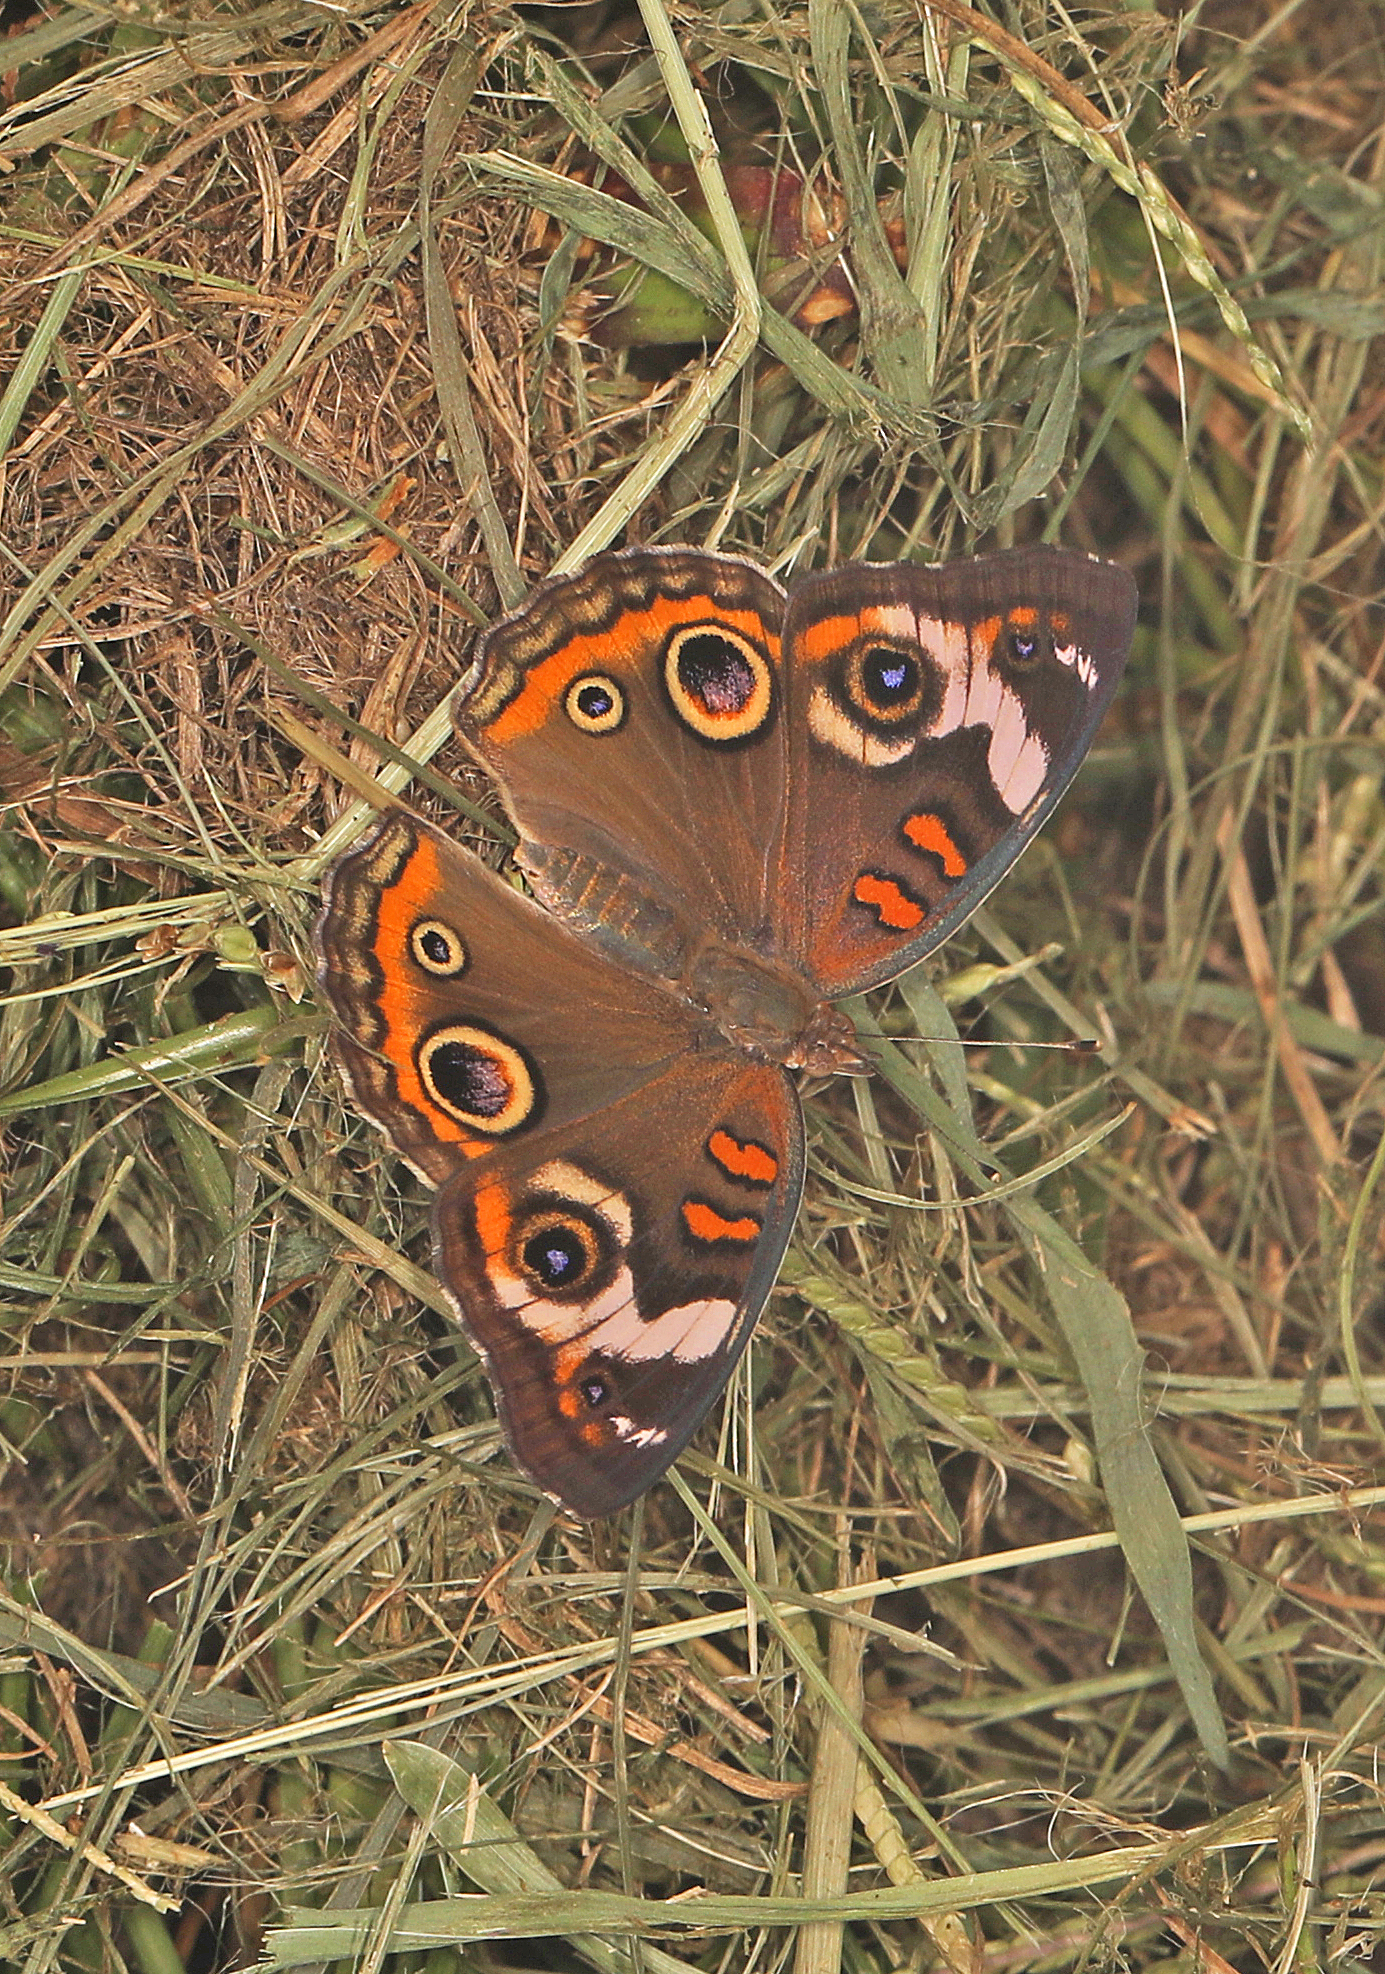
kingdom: Animalia
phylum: Arthropoda
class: Insecta
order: Lepidoptera
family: Nymphalidae
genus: Junonia
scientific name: Junonia coenia
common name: Common buckeye
